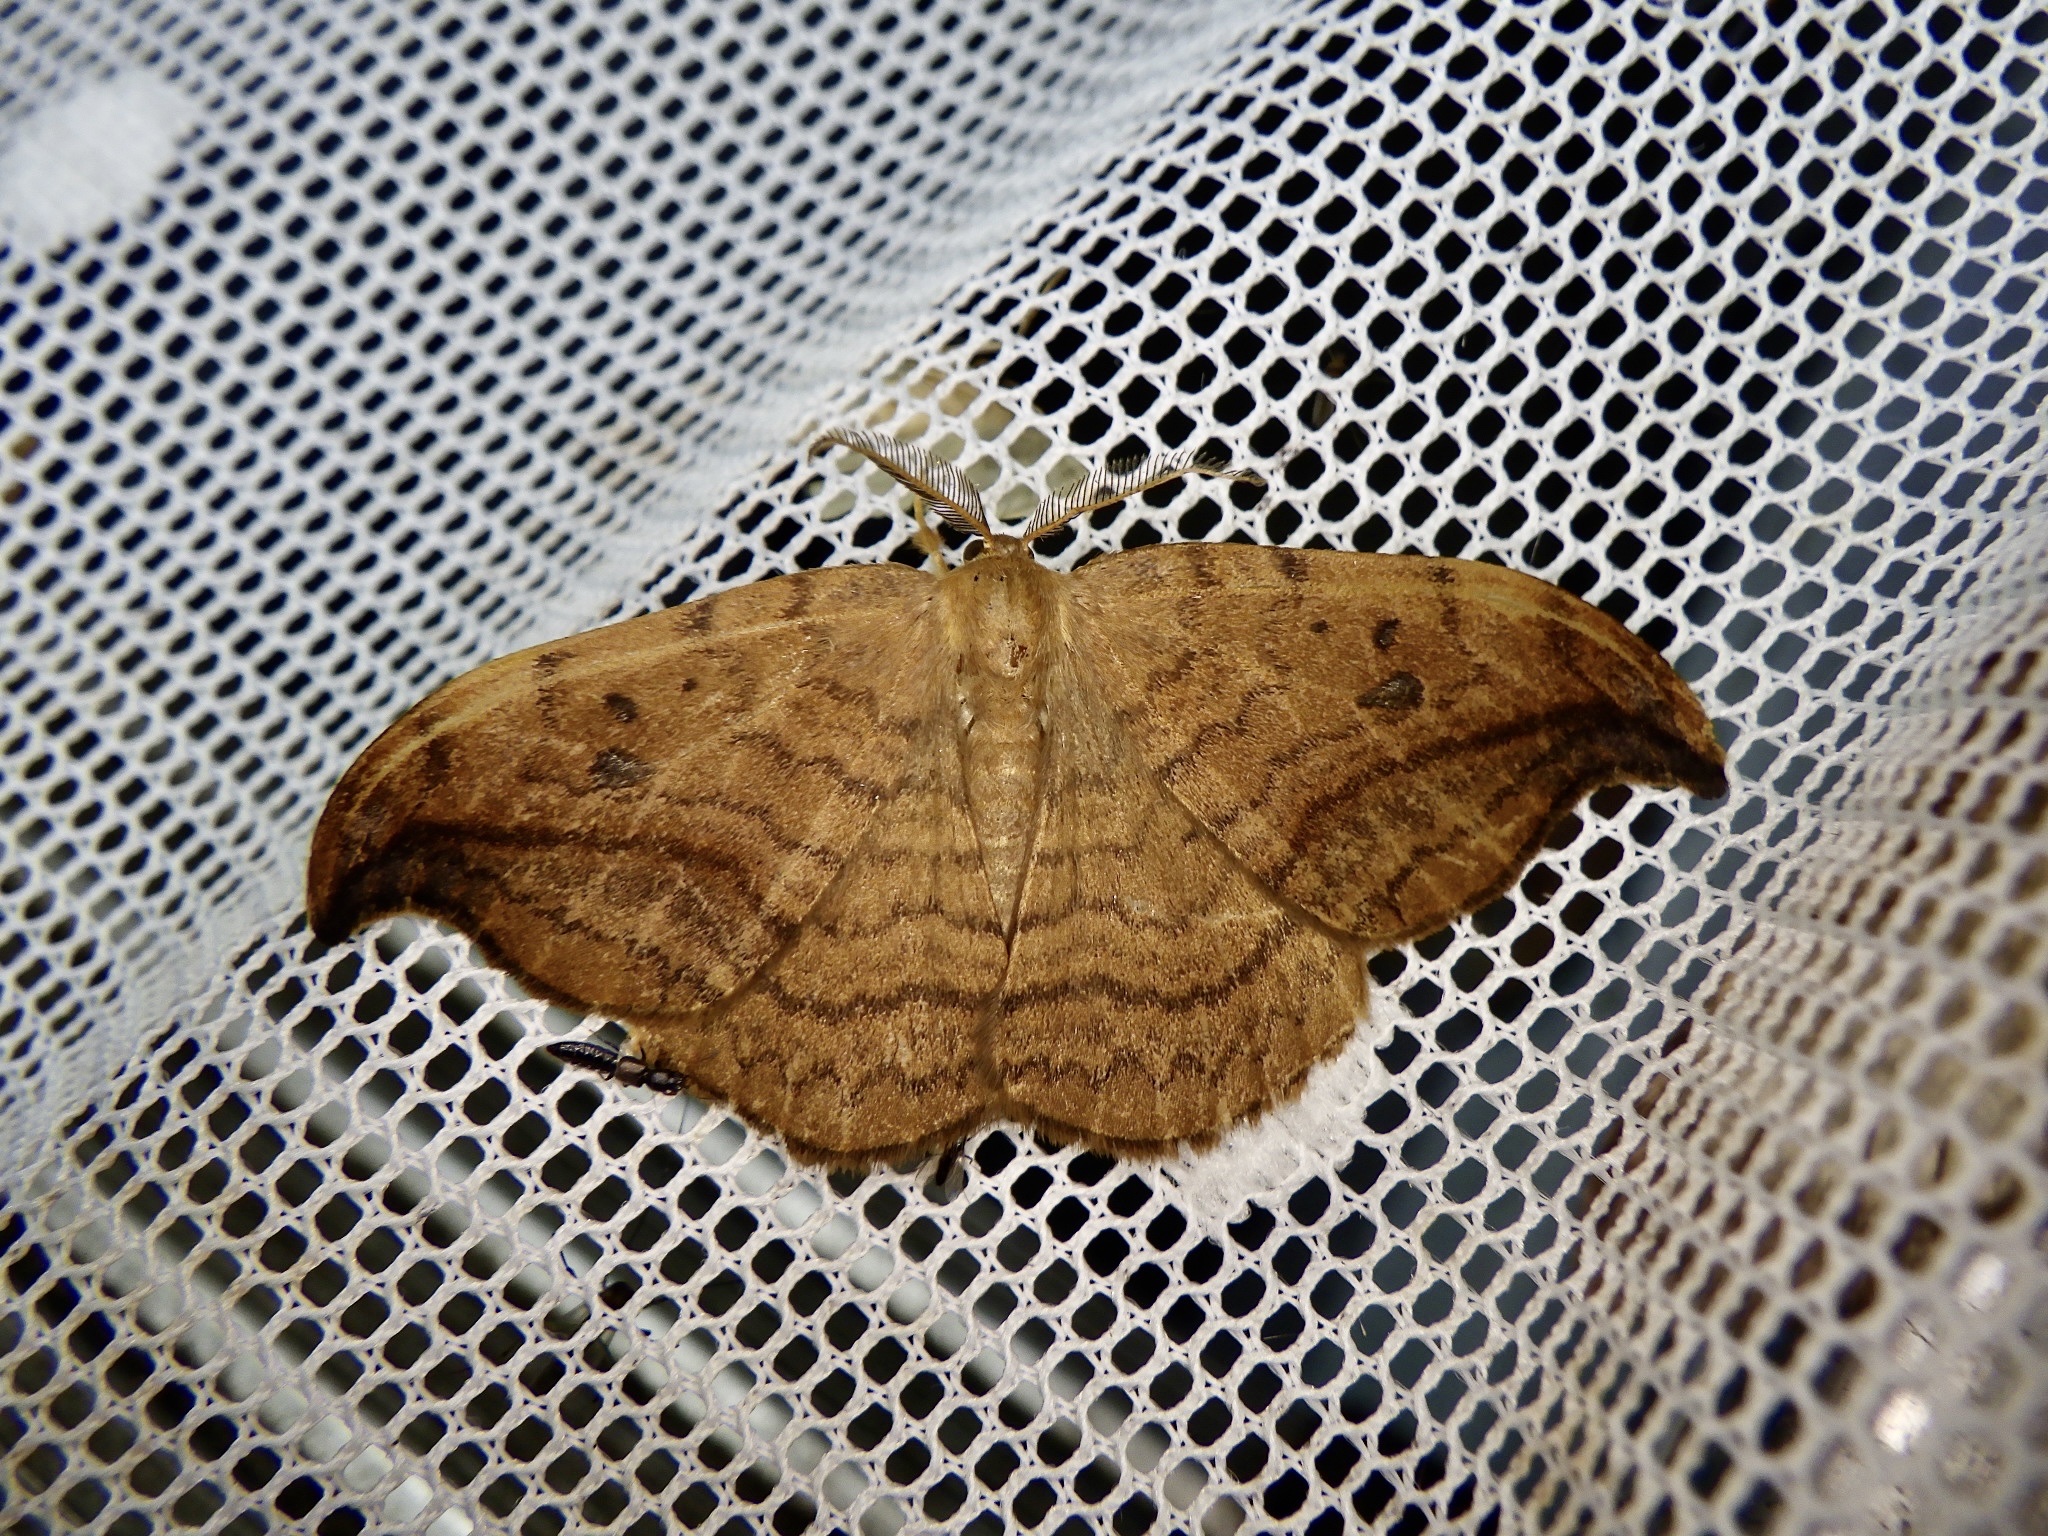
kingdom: Animalia
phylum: Arthropoda
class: Insecta
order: Lepidoptera
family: Drepanidae
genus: Drepana
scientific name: Drepana curvatula
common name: Dusky hook-tip
